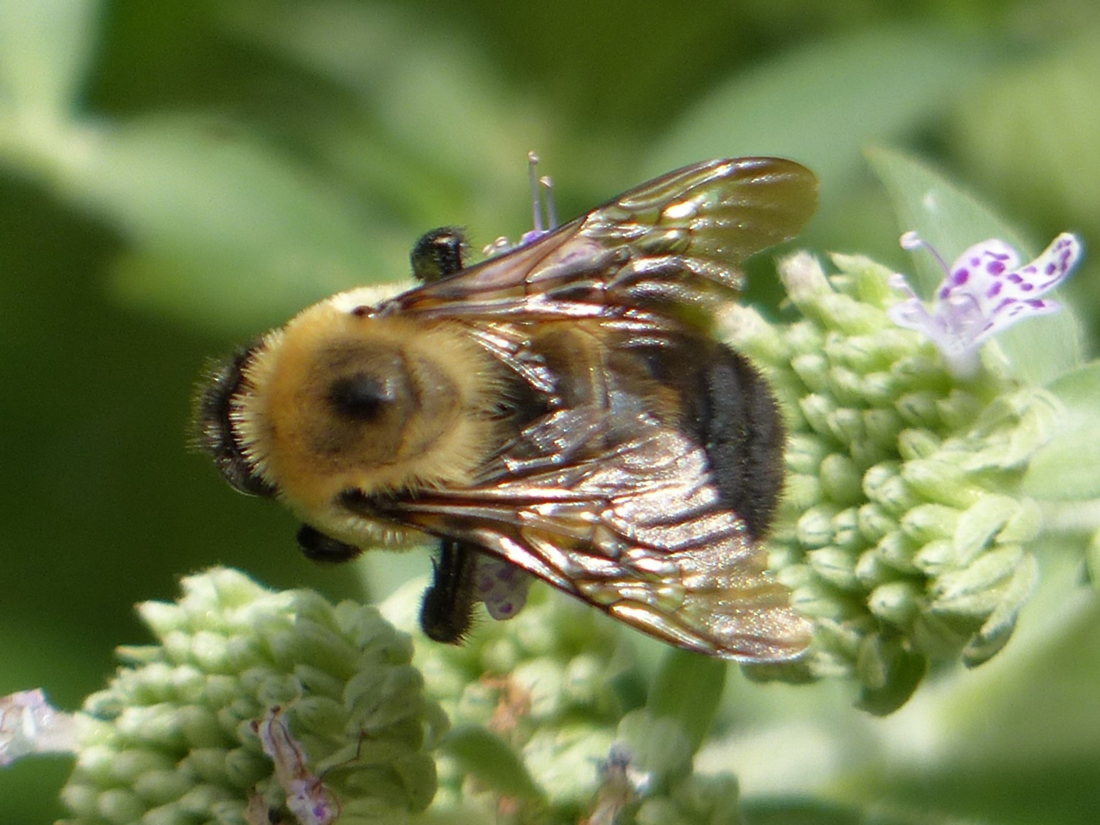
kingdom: Animalia
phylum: Arthropoda
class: Insecta
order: Hymenoptera
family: Apidae
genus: Bombus
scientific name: Bombus griseocollis
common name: Brown-belted bumble bee
